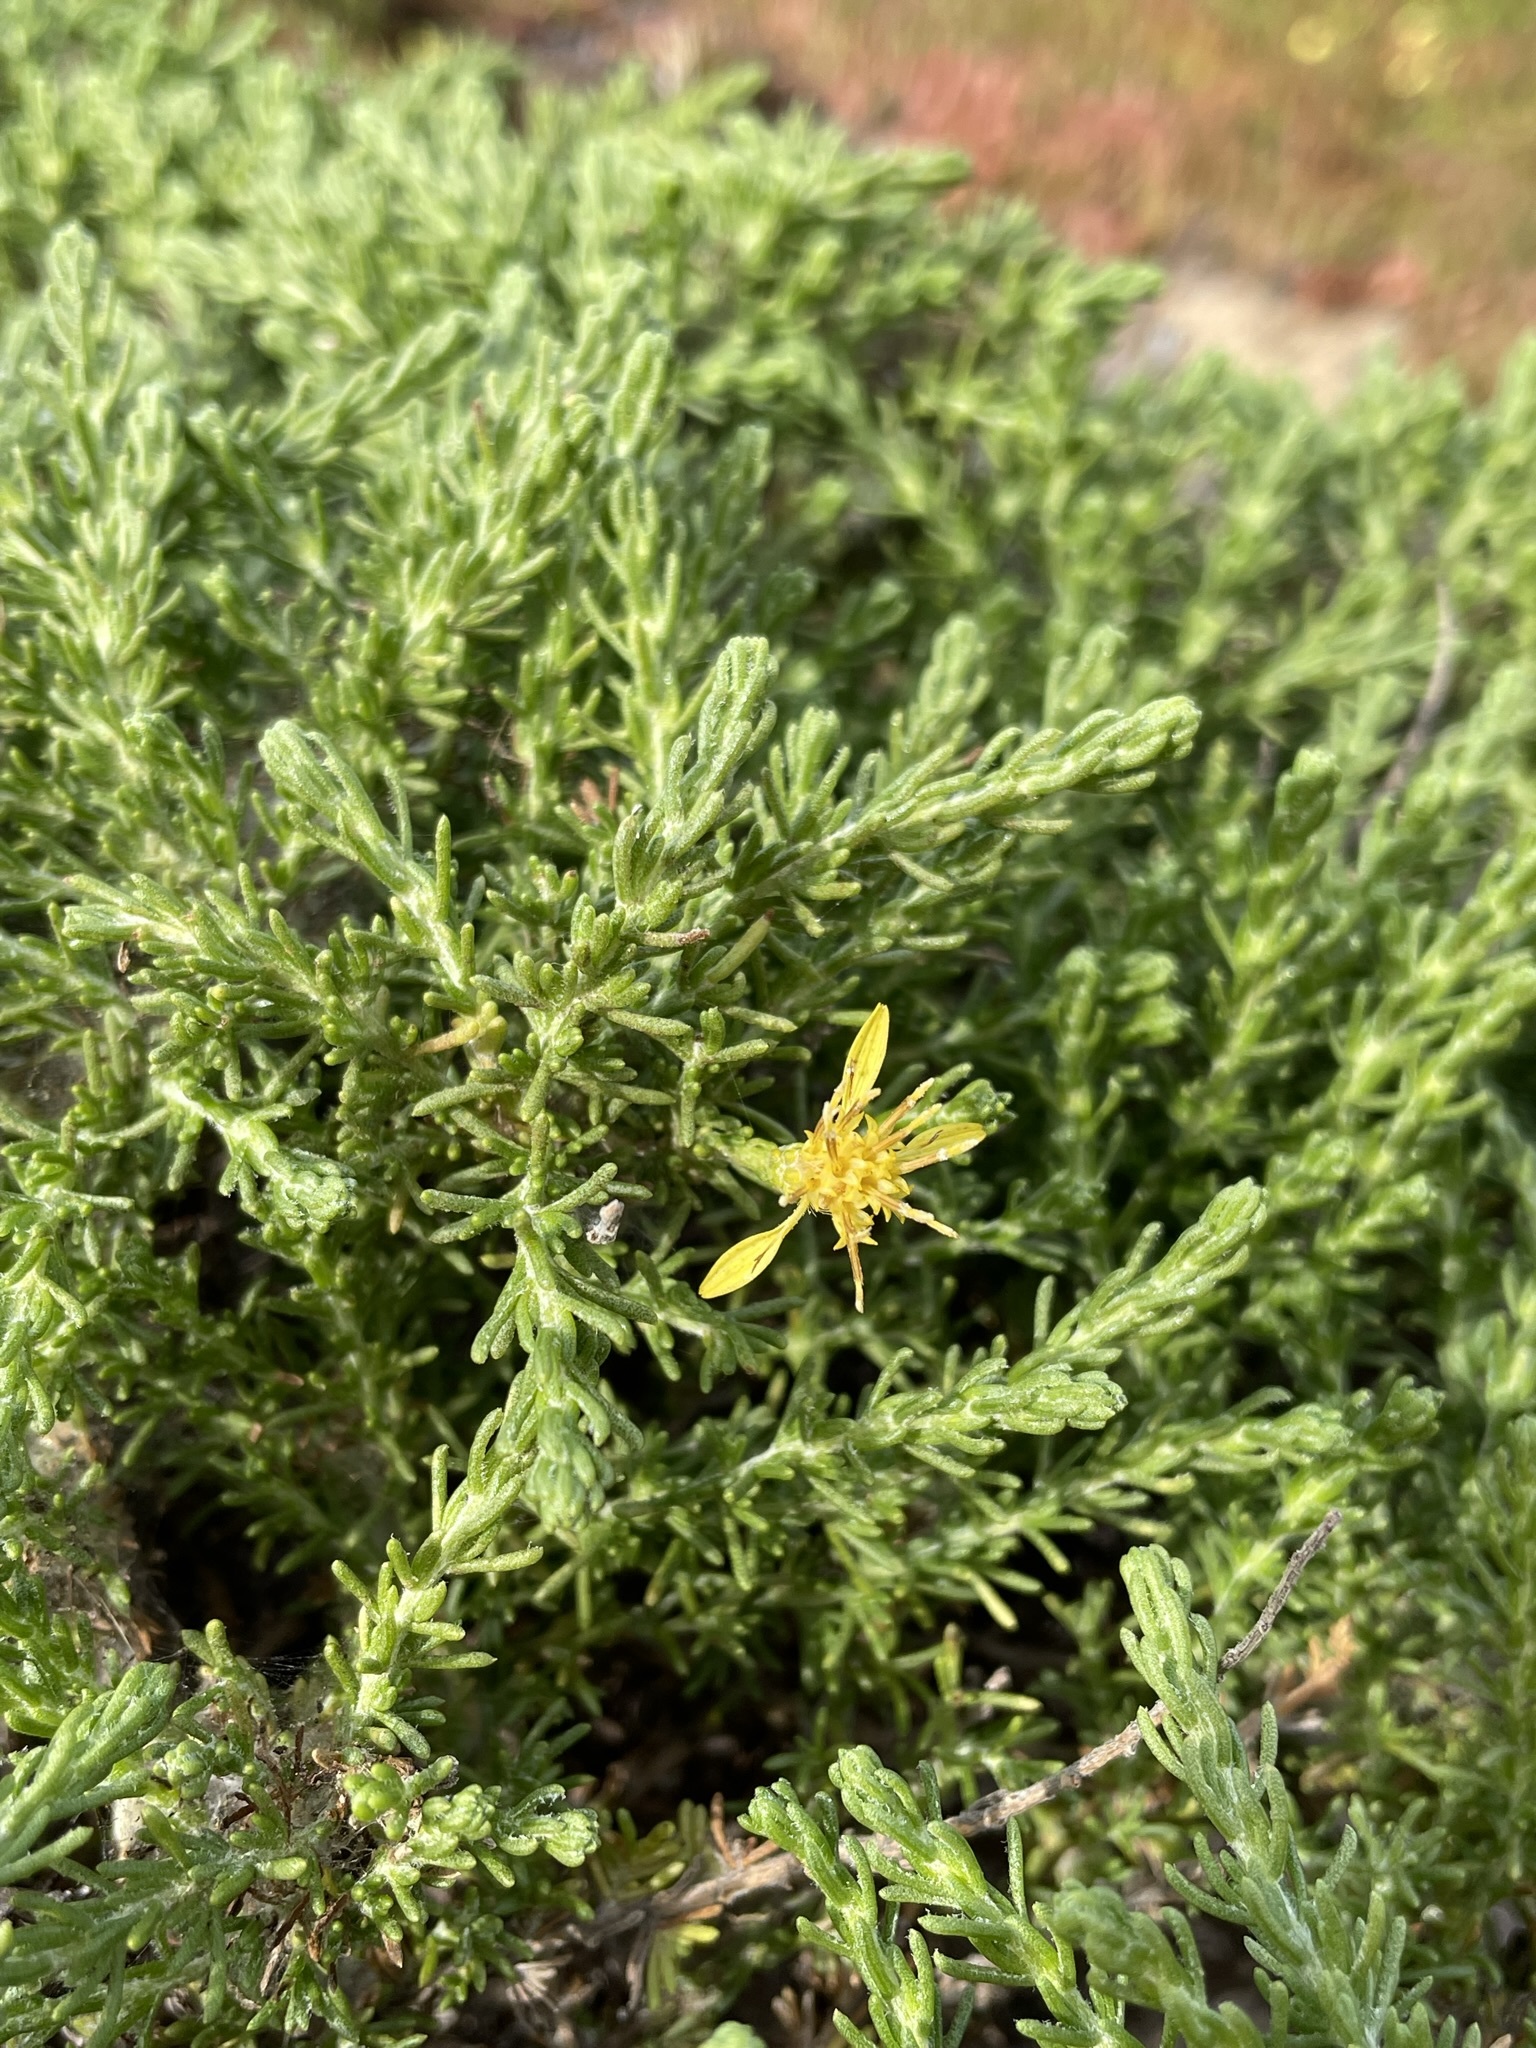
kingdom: Plantae
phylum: Tracheophyta
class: Magnoliopsida
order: Asterales
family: Asteraceae
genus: Ericameria
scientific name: Ericameria ericoides
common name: California goldenbush
